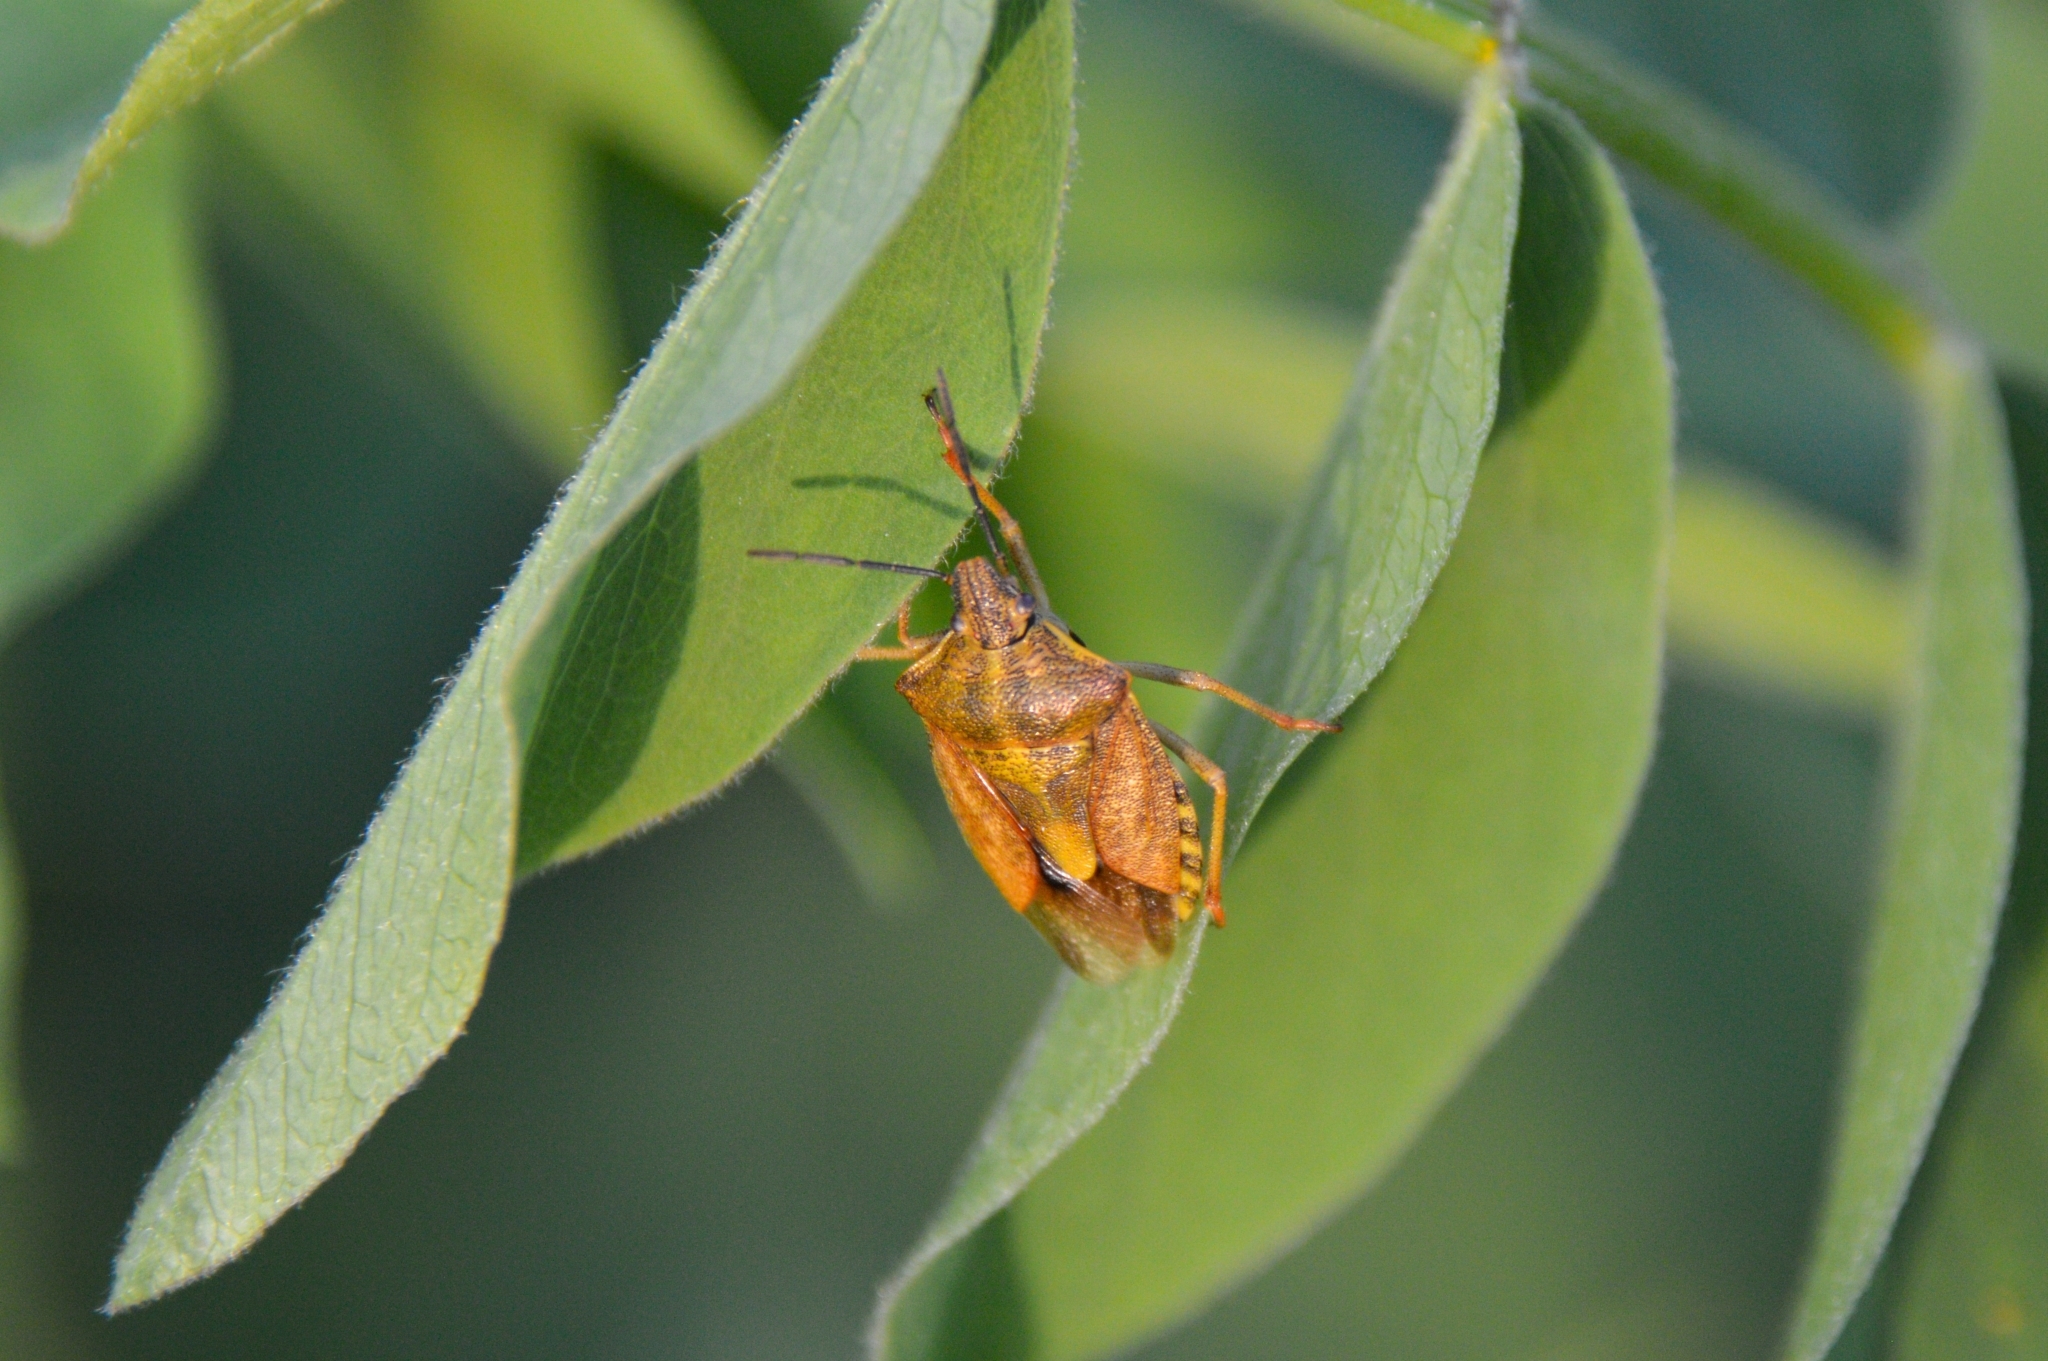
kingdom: Animalia
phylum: Arthropoda
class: Insecta
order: Hemiptera
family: Pentatomidae
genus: Carpocoris
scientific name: Carpocoris purpureipennis
